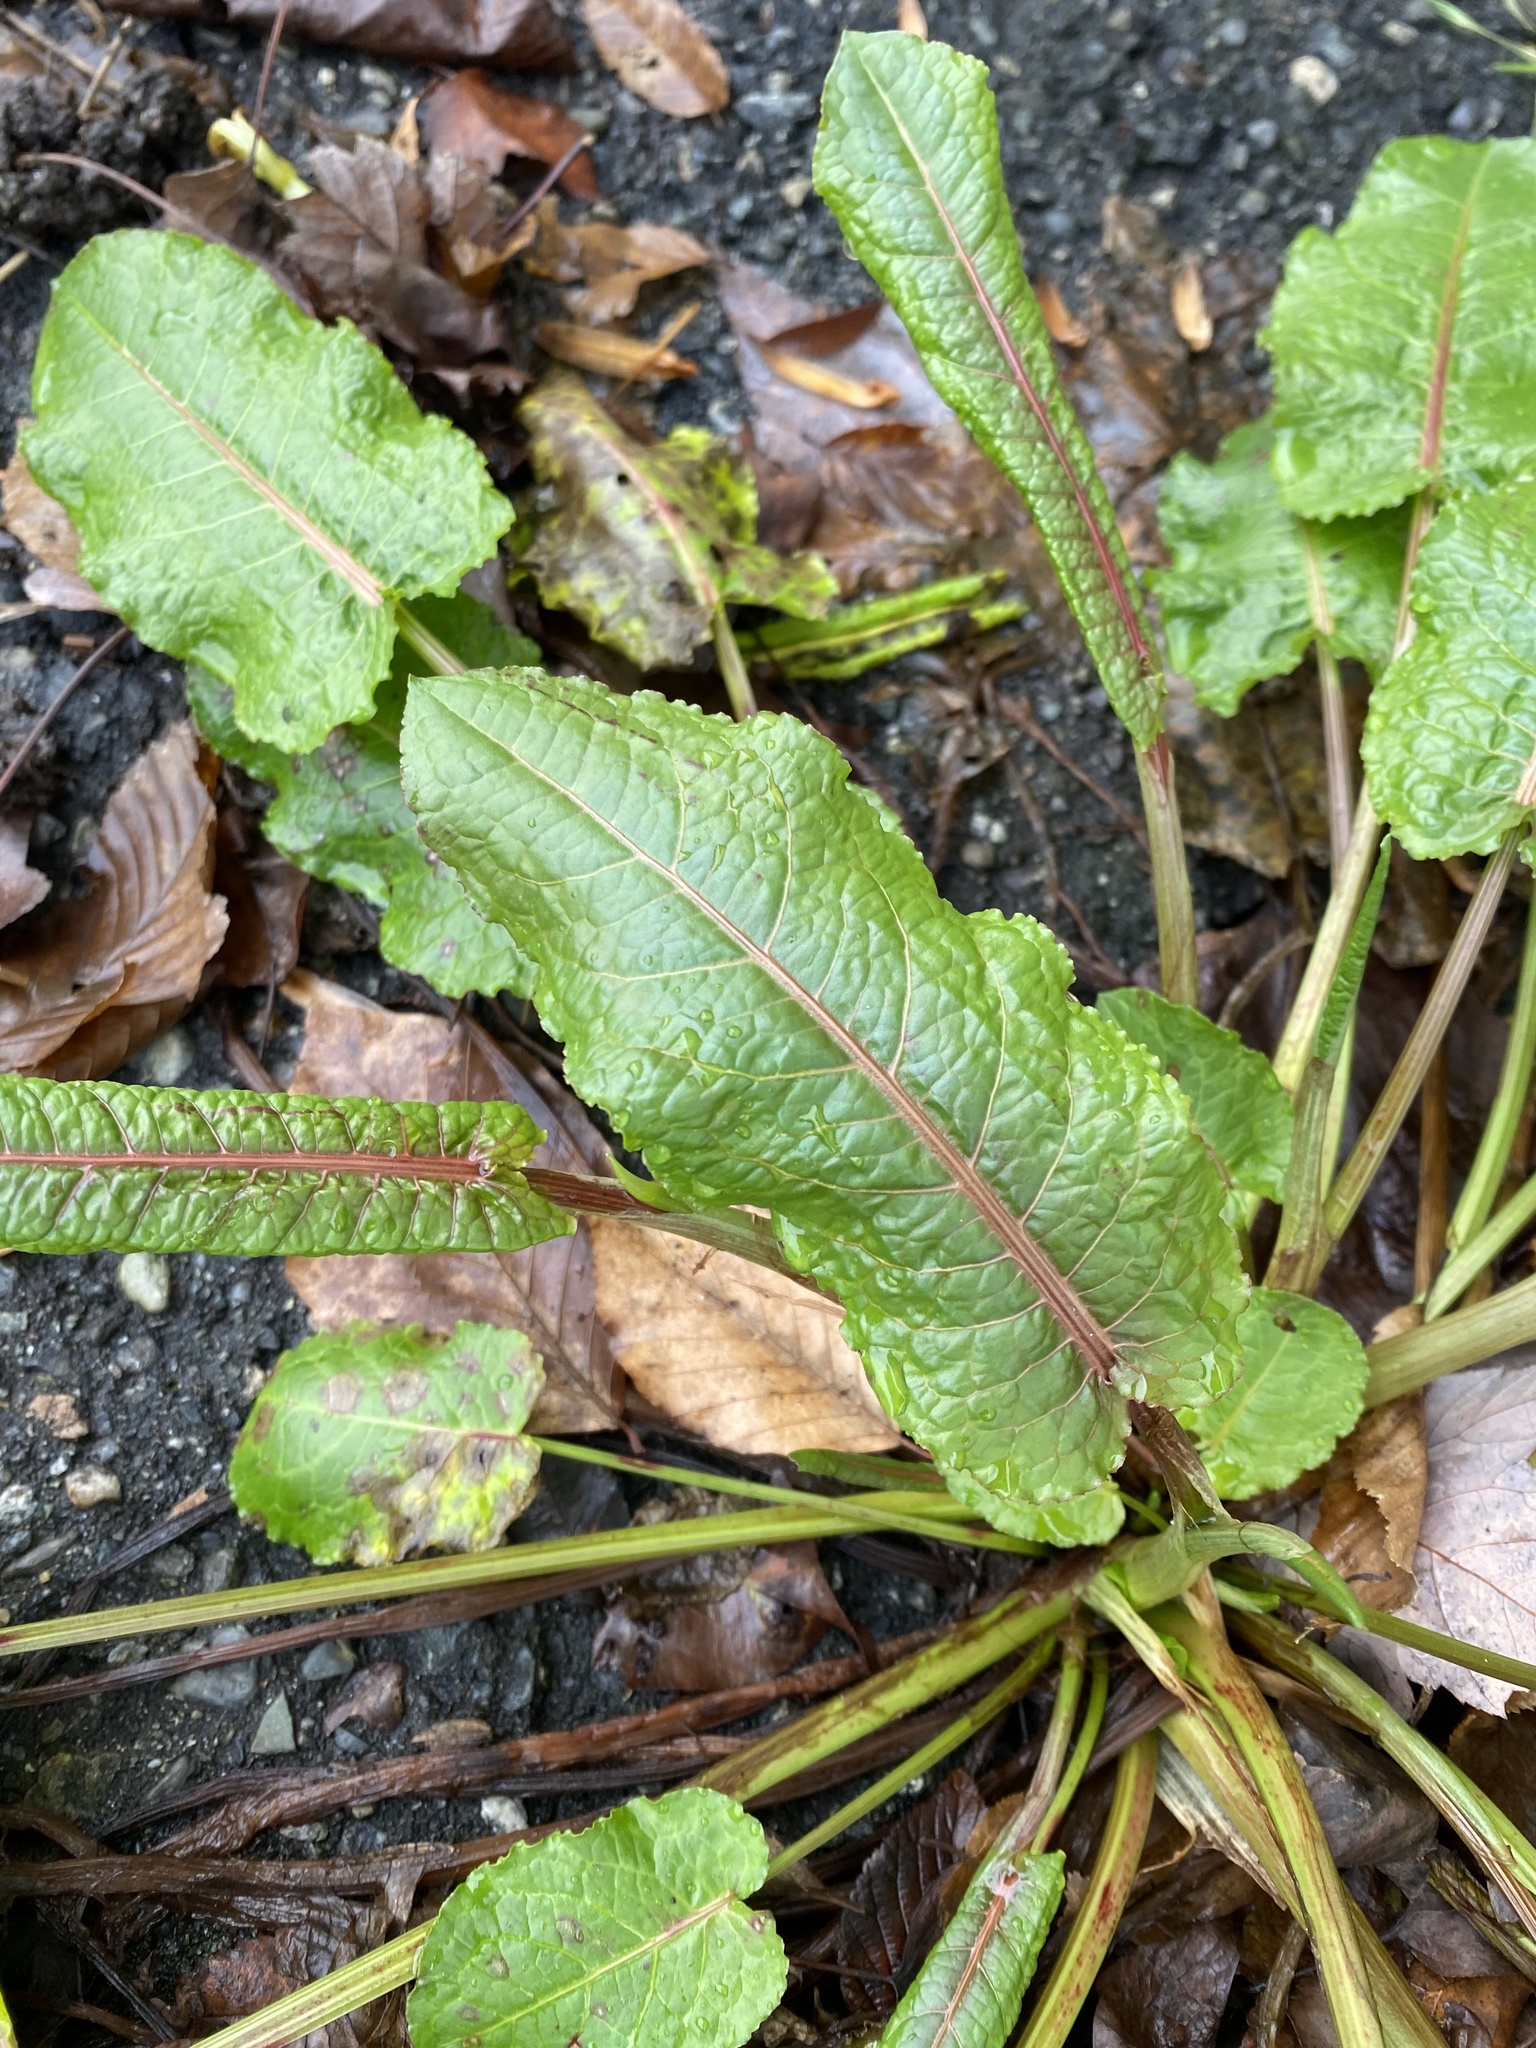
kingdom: Plantae
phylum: Tracheophyta
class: Magnoliopsida
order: Caryophyllales
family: Polygonaceae
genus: Rumex
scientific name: Rumex obtusifolius
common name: Bitter dock
